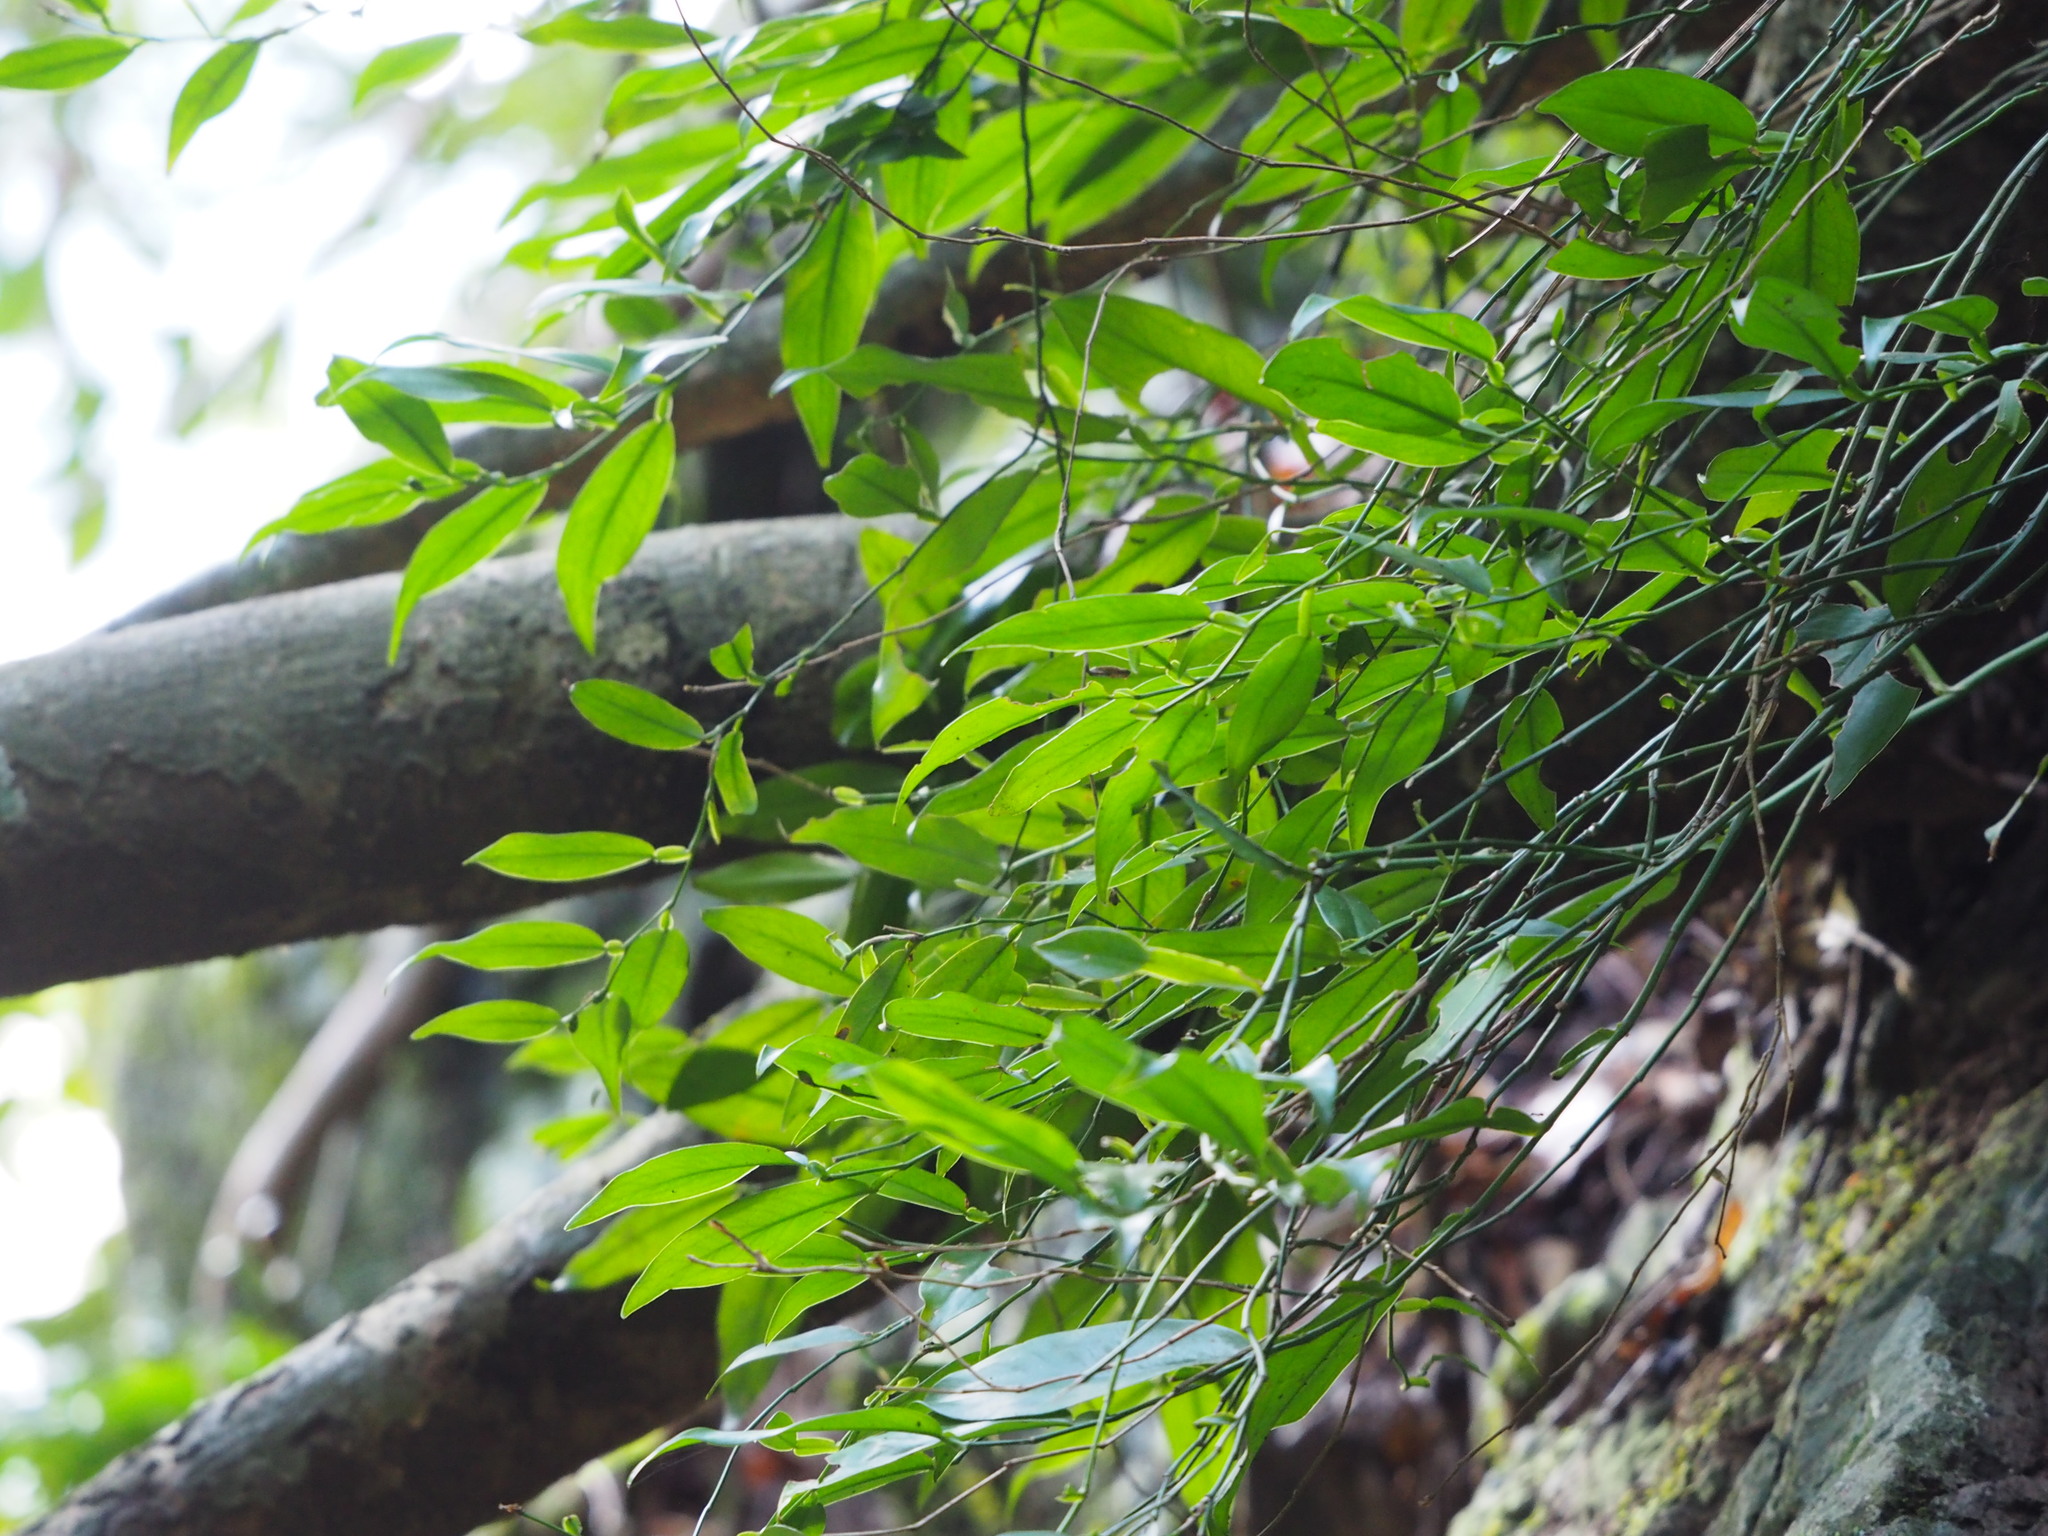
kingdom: Plantae
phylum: Tracheophyta
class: Liliopsida
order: Alismatales
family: Araceae
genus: Pothos
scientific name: Pothos chinensis
